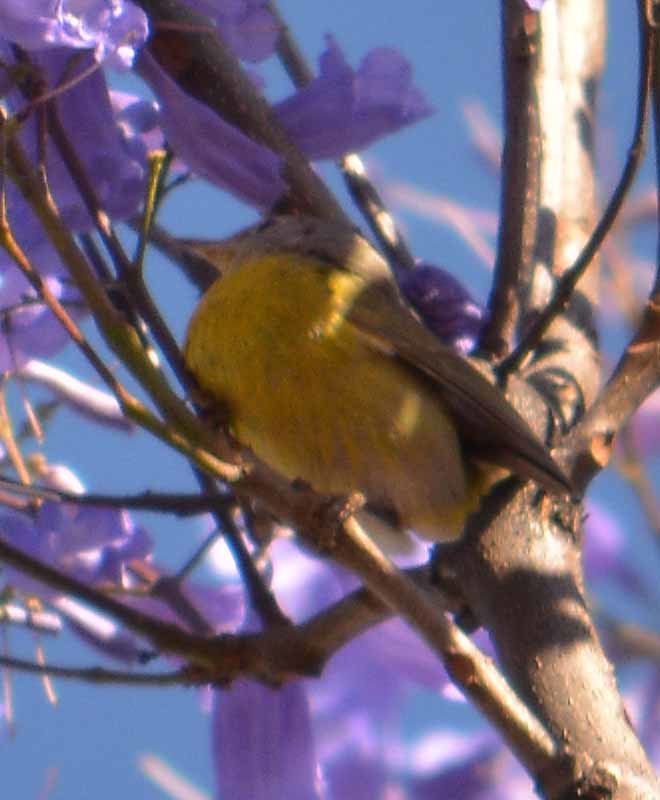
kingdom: Animalia
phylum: Chordata
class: Aves
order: Passeriformes
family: Parulidae
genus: Leiothlypis
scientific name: Leiothlypis ruficapilla
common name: Nashville warbler
